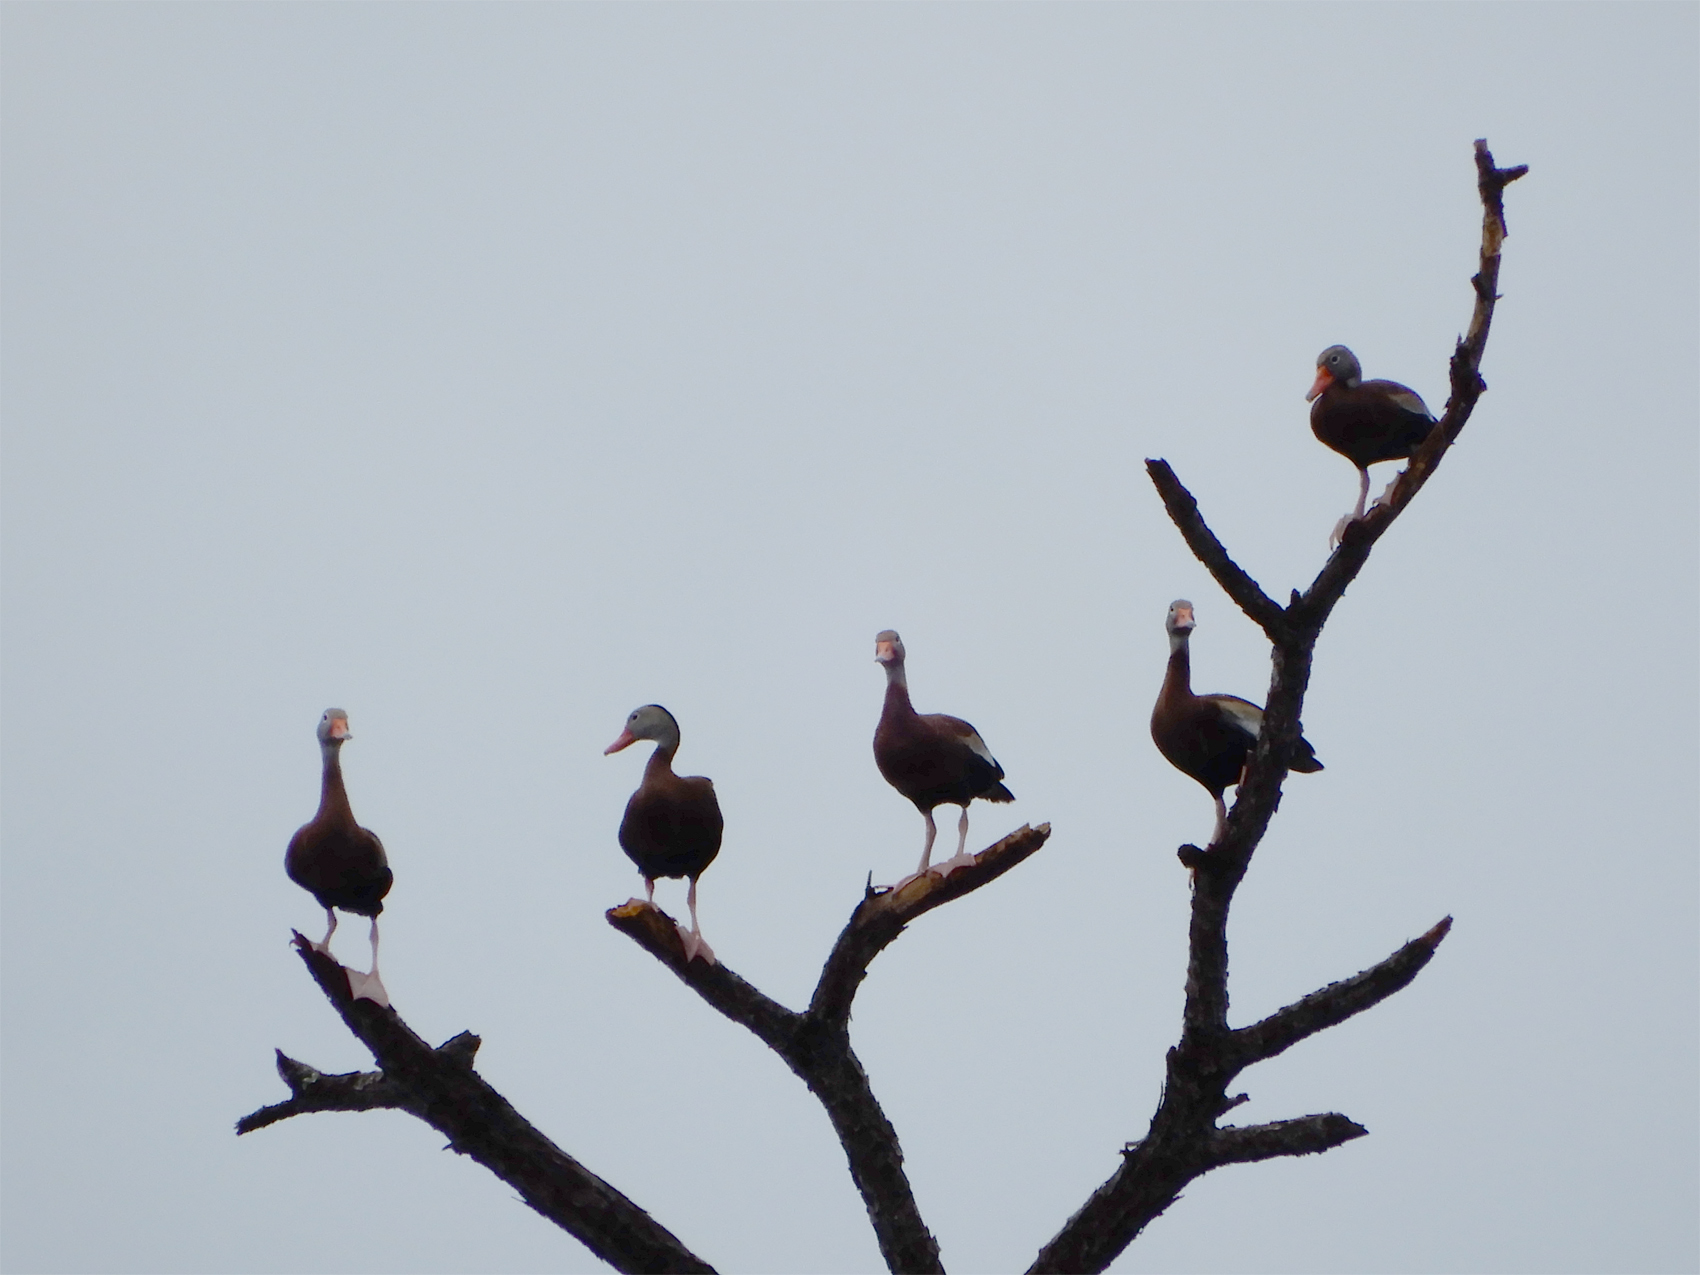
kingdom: Animalia
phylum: Chordata
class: Aves
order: Anseriformes
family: Anatidae
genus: Dendrocygna
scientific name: Dendrocygna autumnalis
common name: Black-bellied whistling duck
